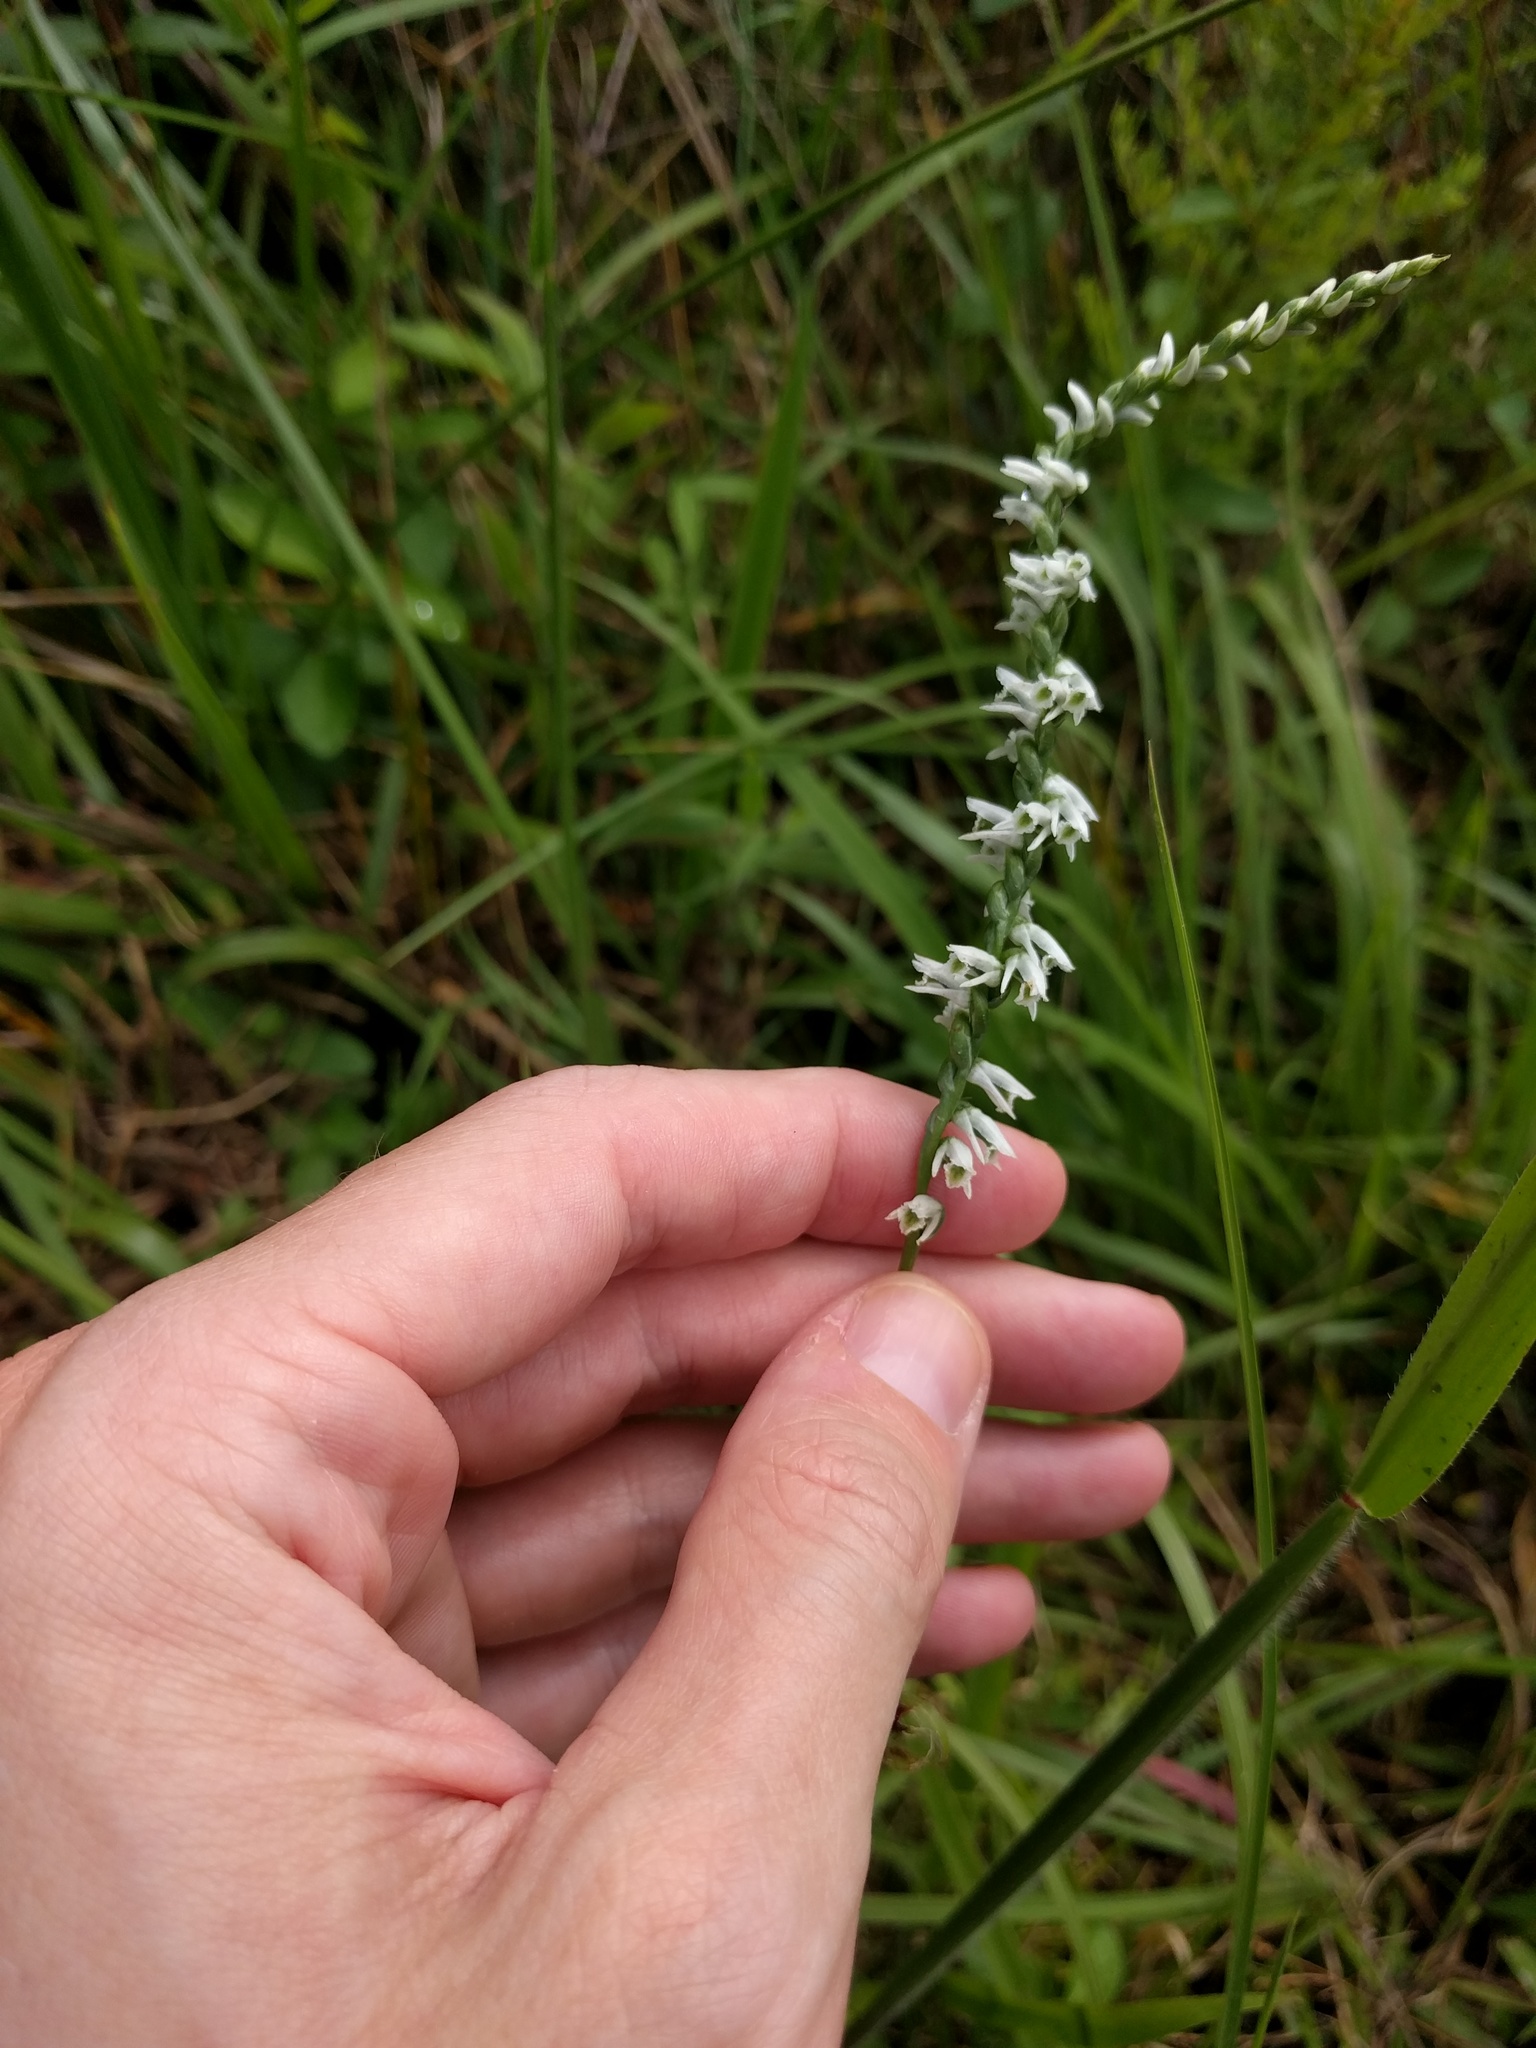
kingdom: Plantae
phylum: Tracheophyta
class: Liliopsida
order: Asparagales
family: Orchidaceae
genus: Spiranthes
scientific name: Spiranthes lacera
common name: Northern slender ladies'-tresses
